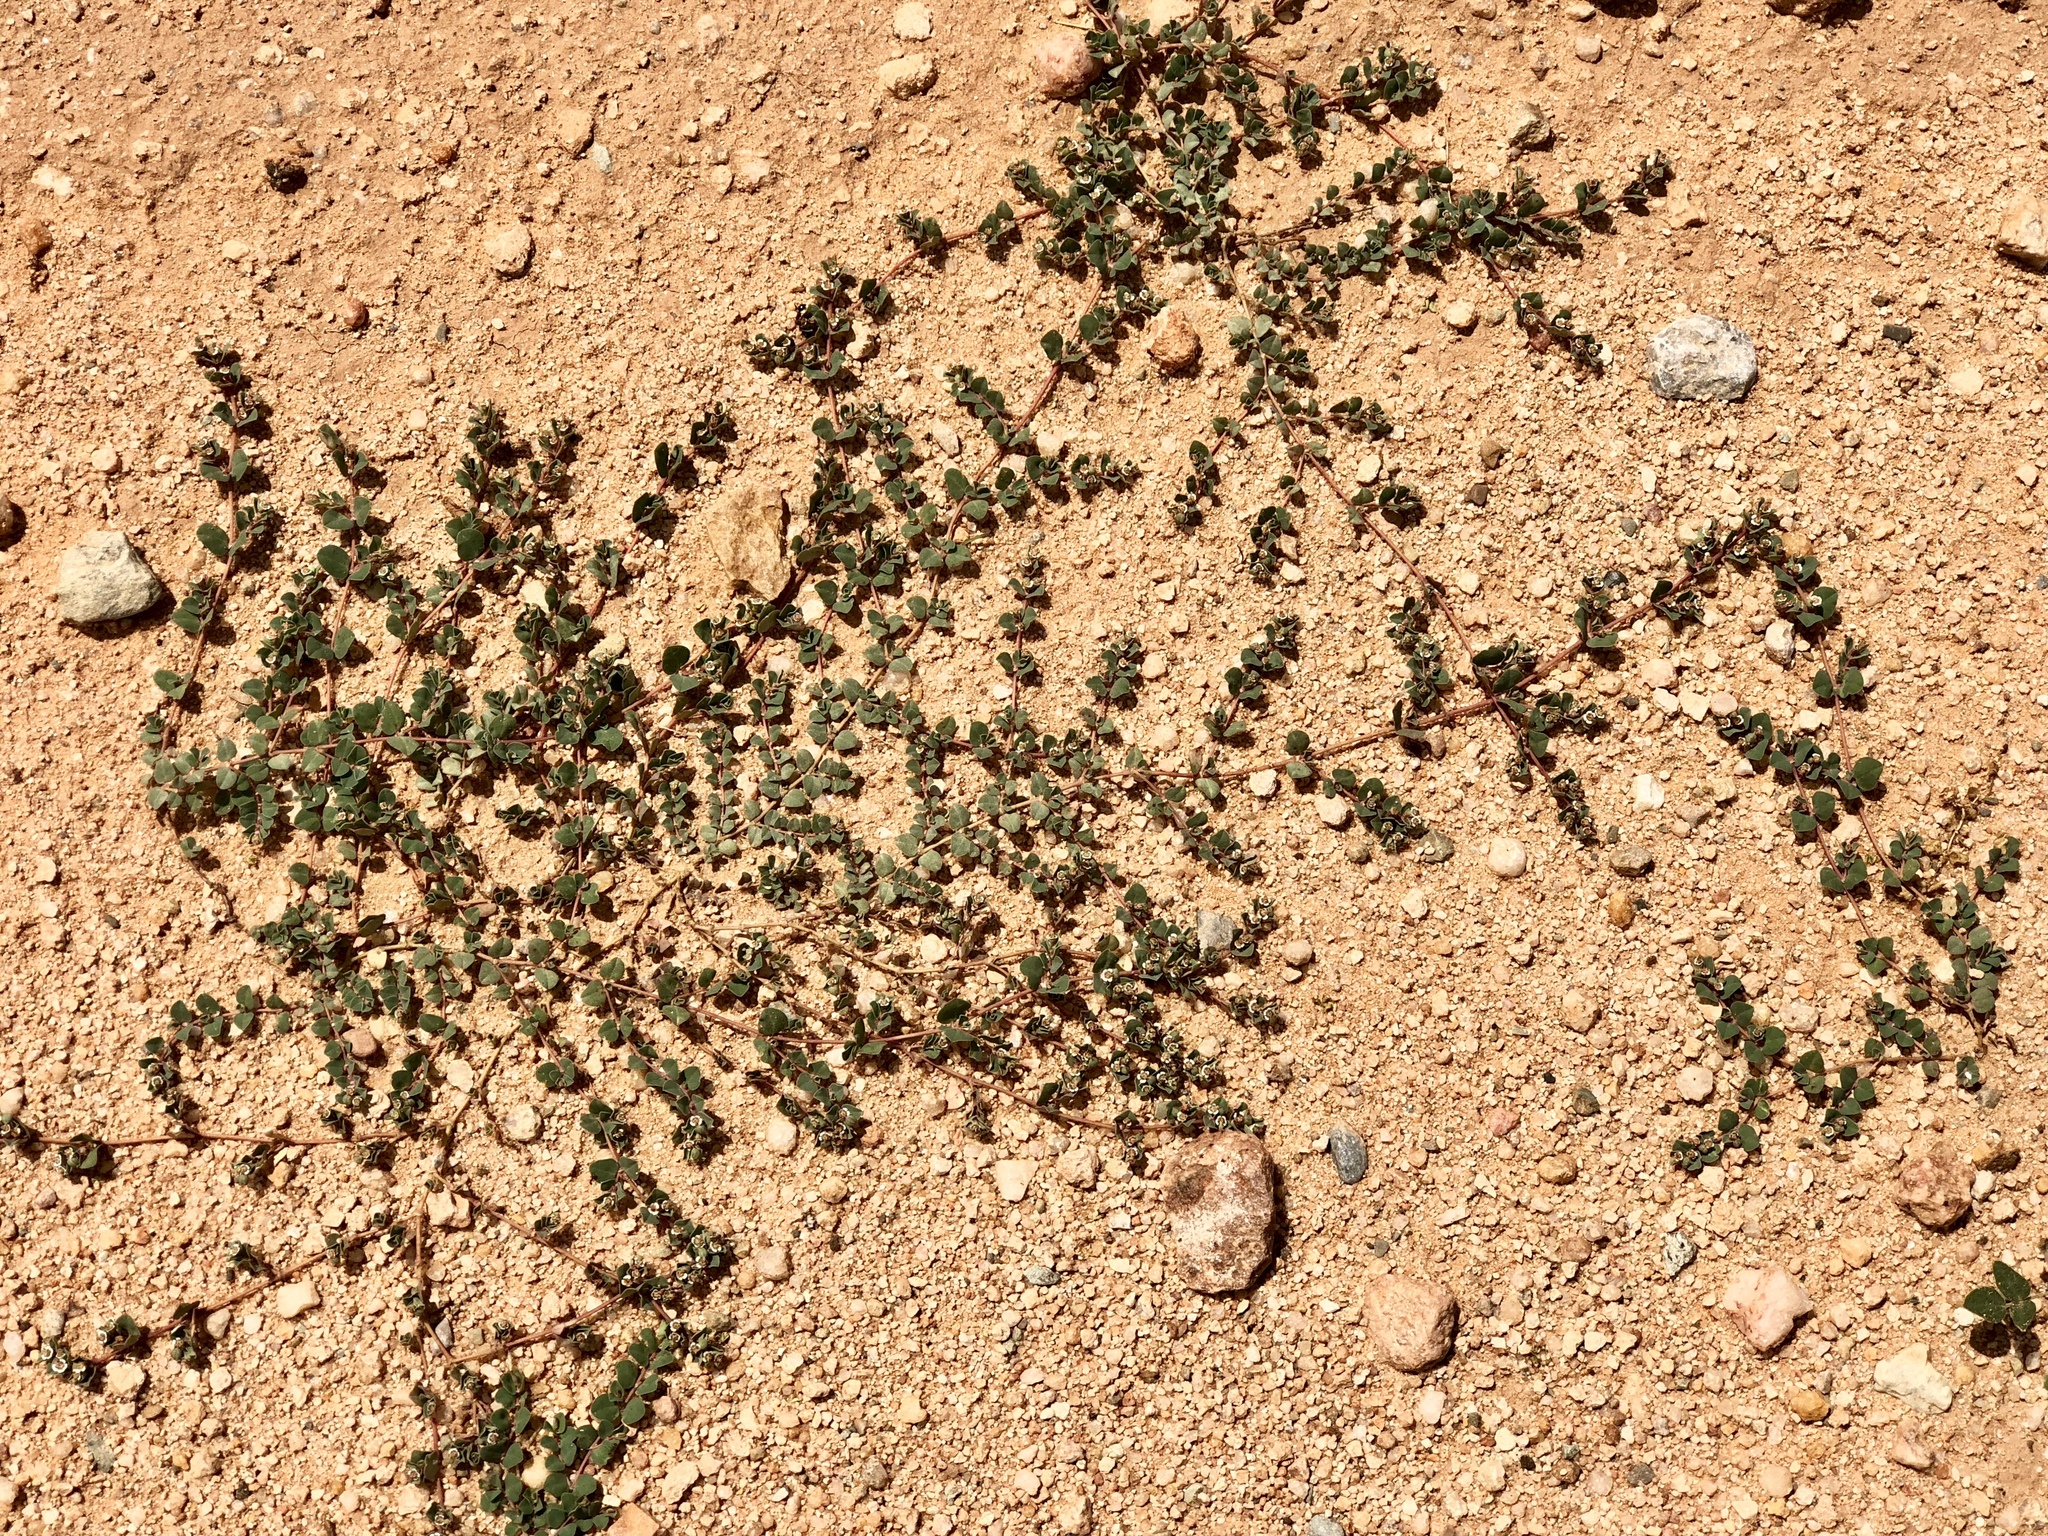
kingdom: Plantae
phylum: Tracheophyta
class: Magnoliopsida
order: Malpighiales
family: Euphorbiaceae
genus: Euphorbia
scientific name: Euphorbia albomarginata
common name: Whitemargin sandmat
